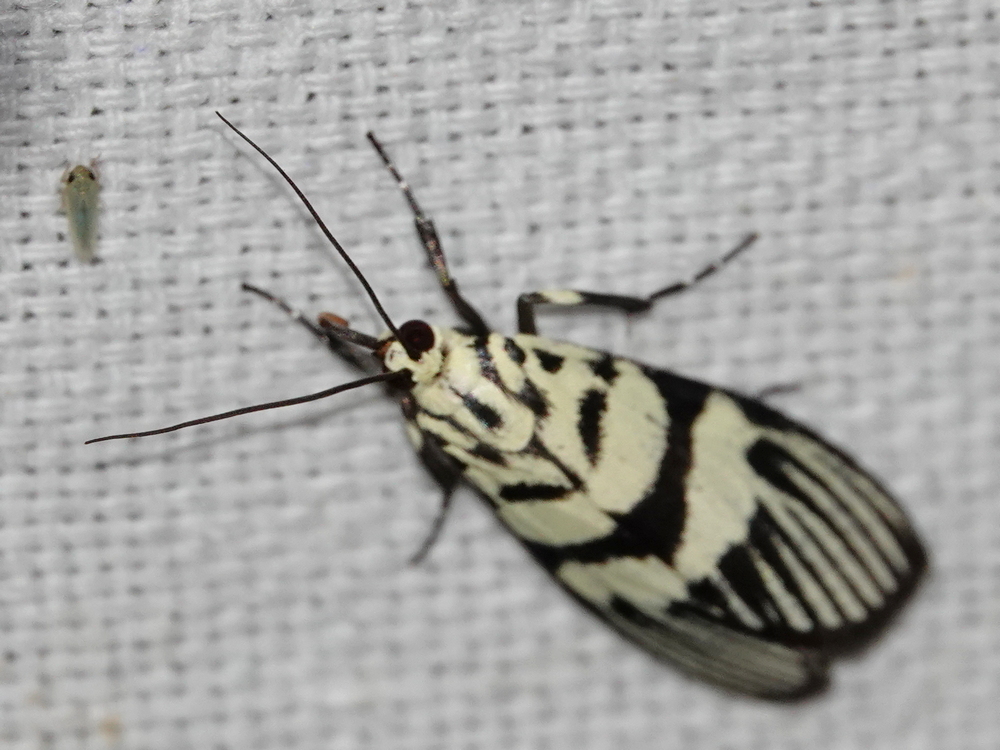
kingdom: Animalia
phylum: Arthropoda
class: Insecta
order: Lepidoptera
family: Crambidae
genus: Heortia
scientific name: Heortia vitessoides
